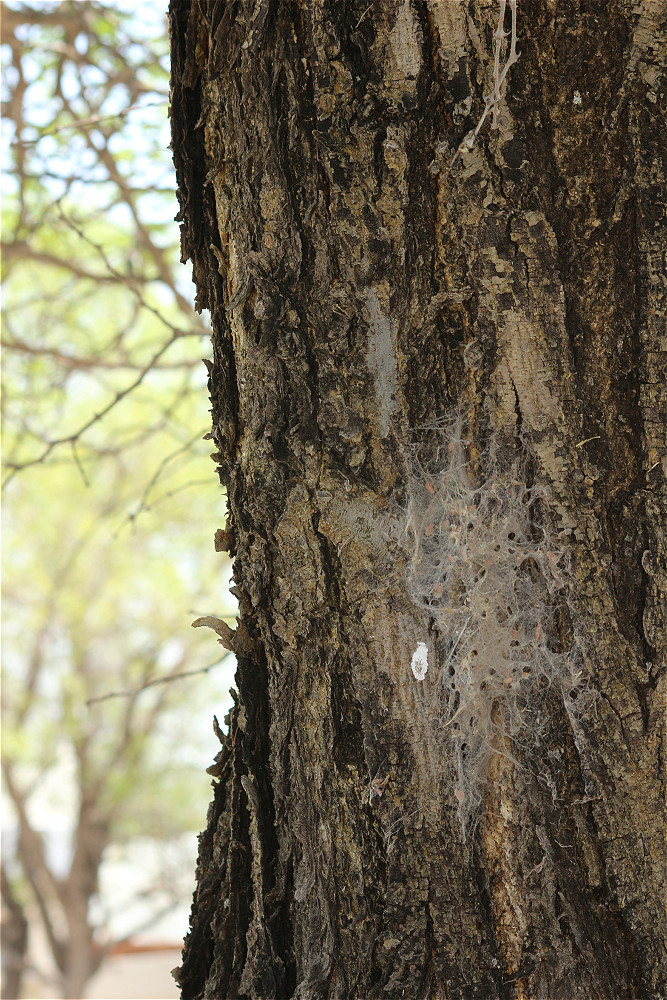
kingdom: Animalia
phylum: Arthropoda
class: Arachnida
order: Araneae
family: Eresidae
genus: Stegodyphus
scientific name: Stegodyphus dumicola
